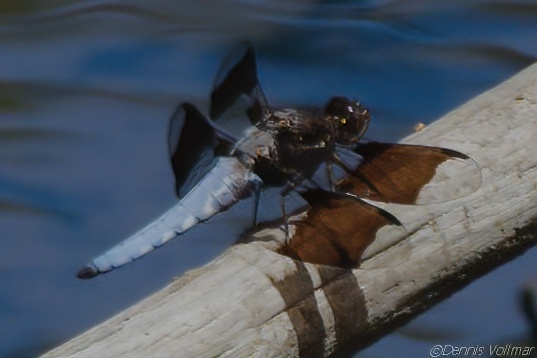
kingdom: Animalia
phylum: Arthropoda
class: Insecta
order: Odonata
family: Libellulidae
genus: Plathemis
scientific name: Plathemis lydia
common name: Common whitetail
